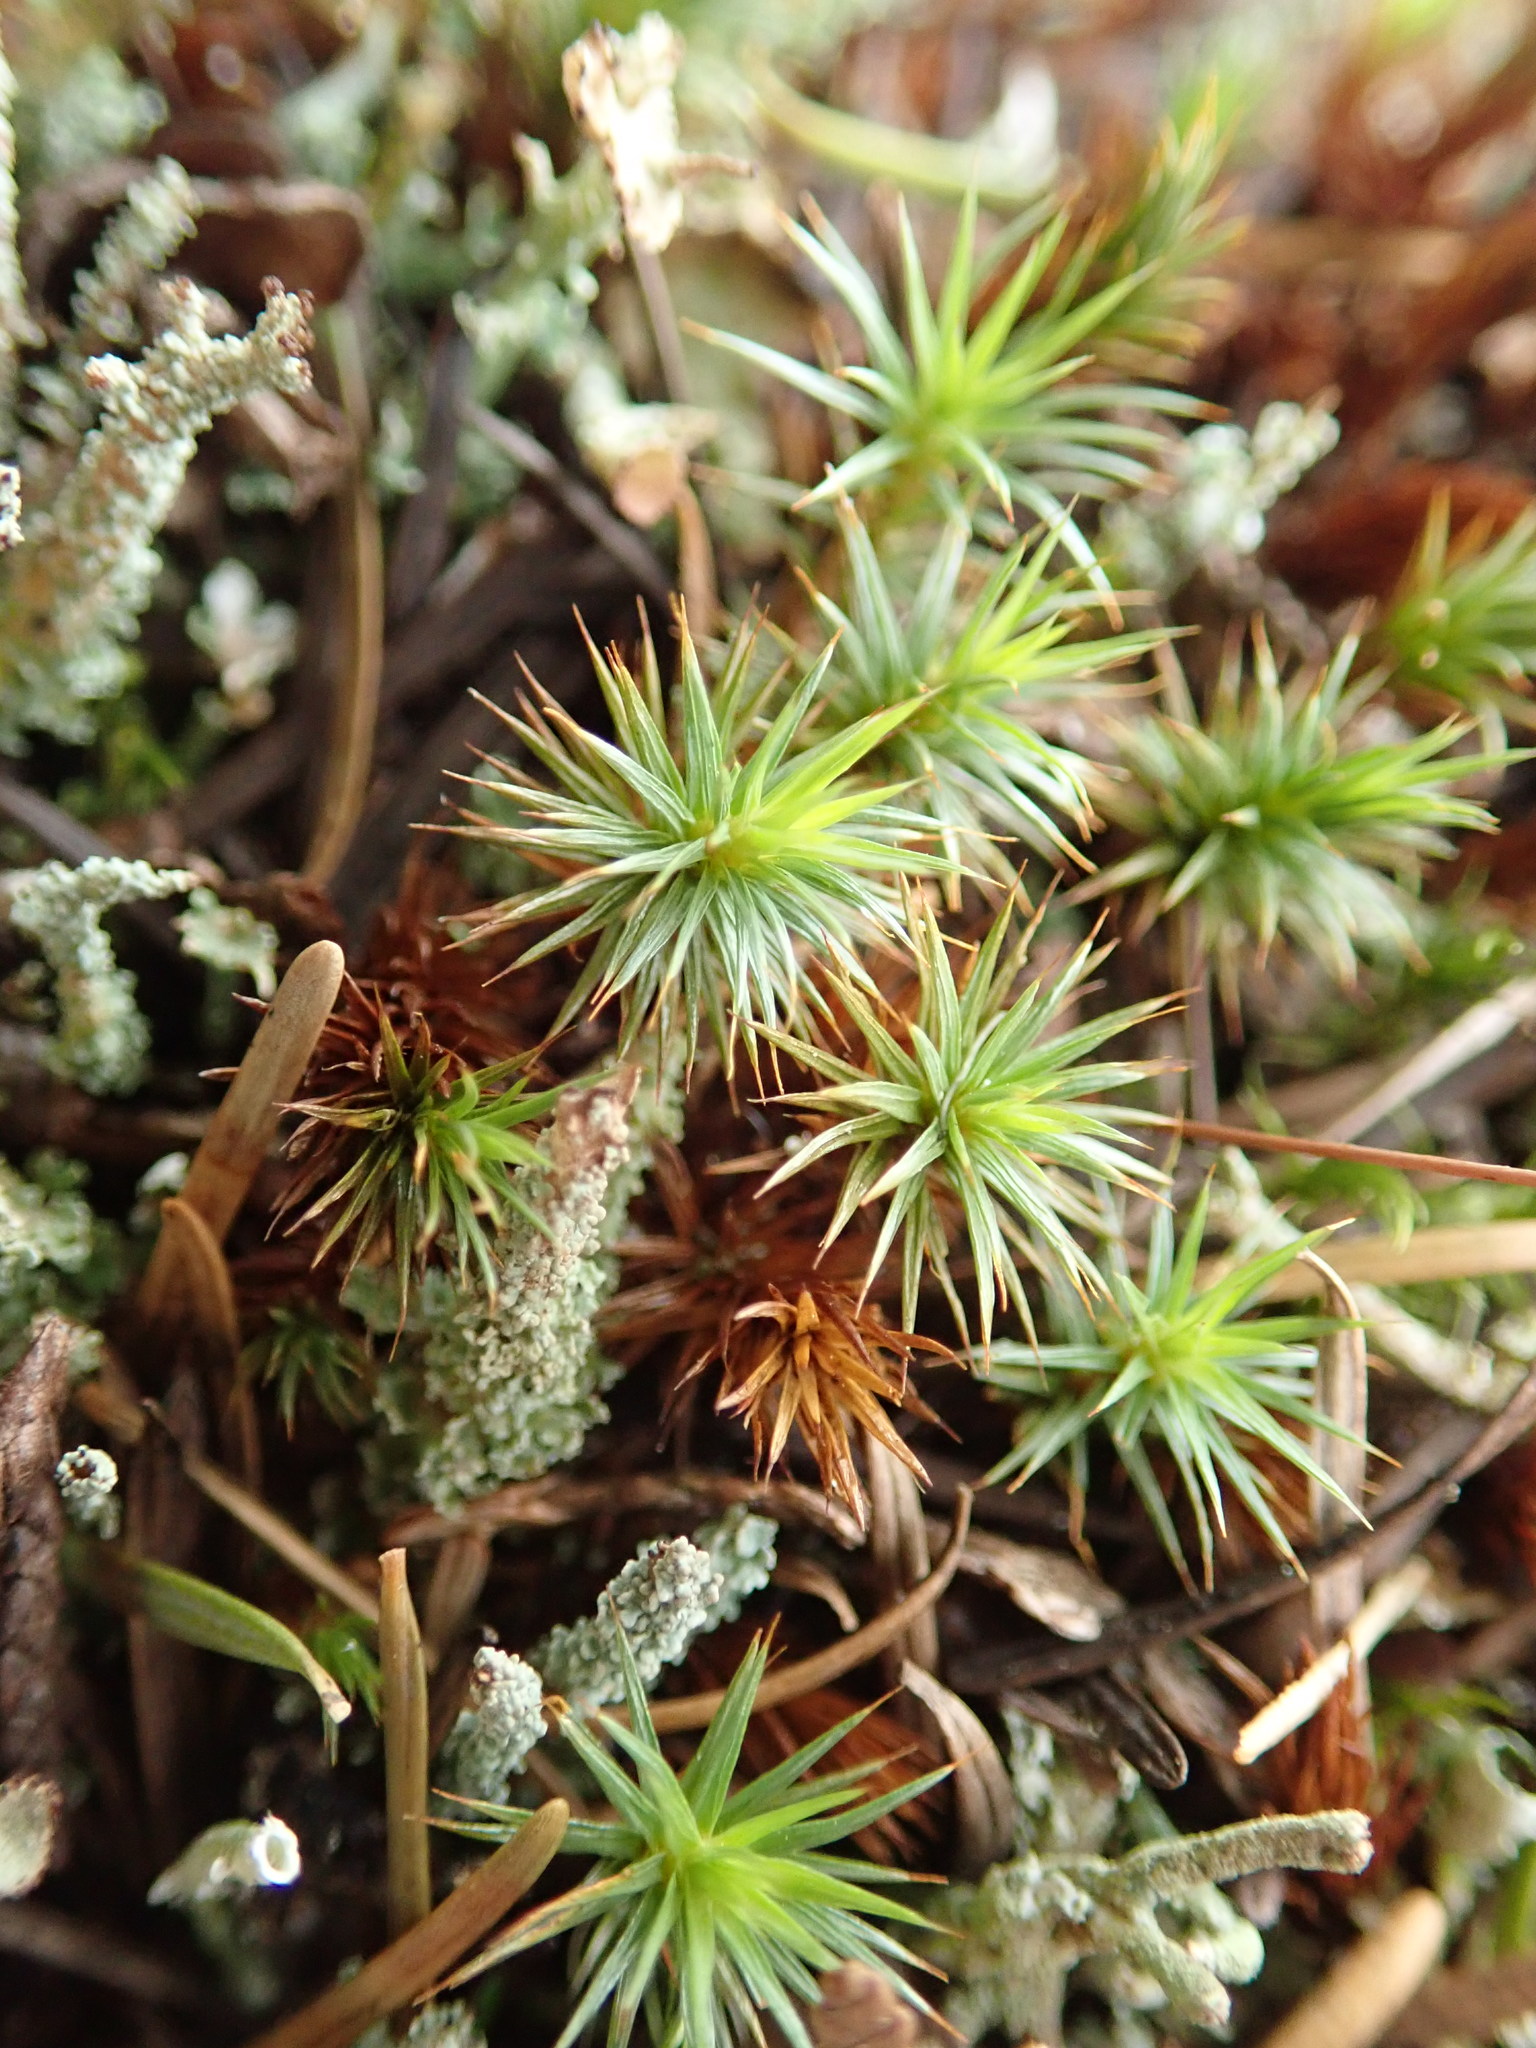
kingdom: Plantae
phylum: Bryophyta
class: Polytrichopsida
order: Polytrichales
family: Polytrichaceae
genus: Polytrichum
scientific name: Polytrichum juniperinum
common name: Juniper haircap moss
